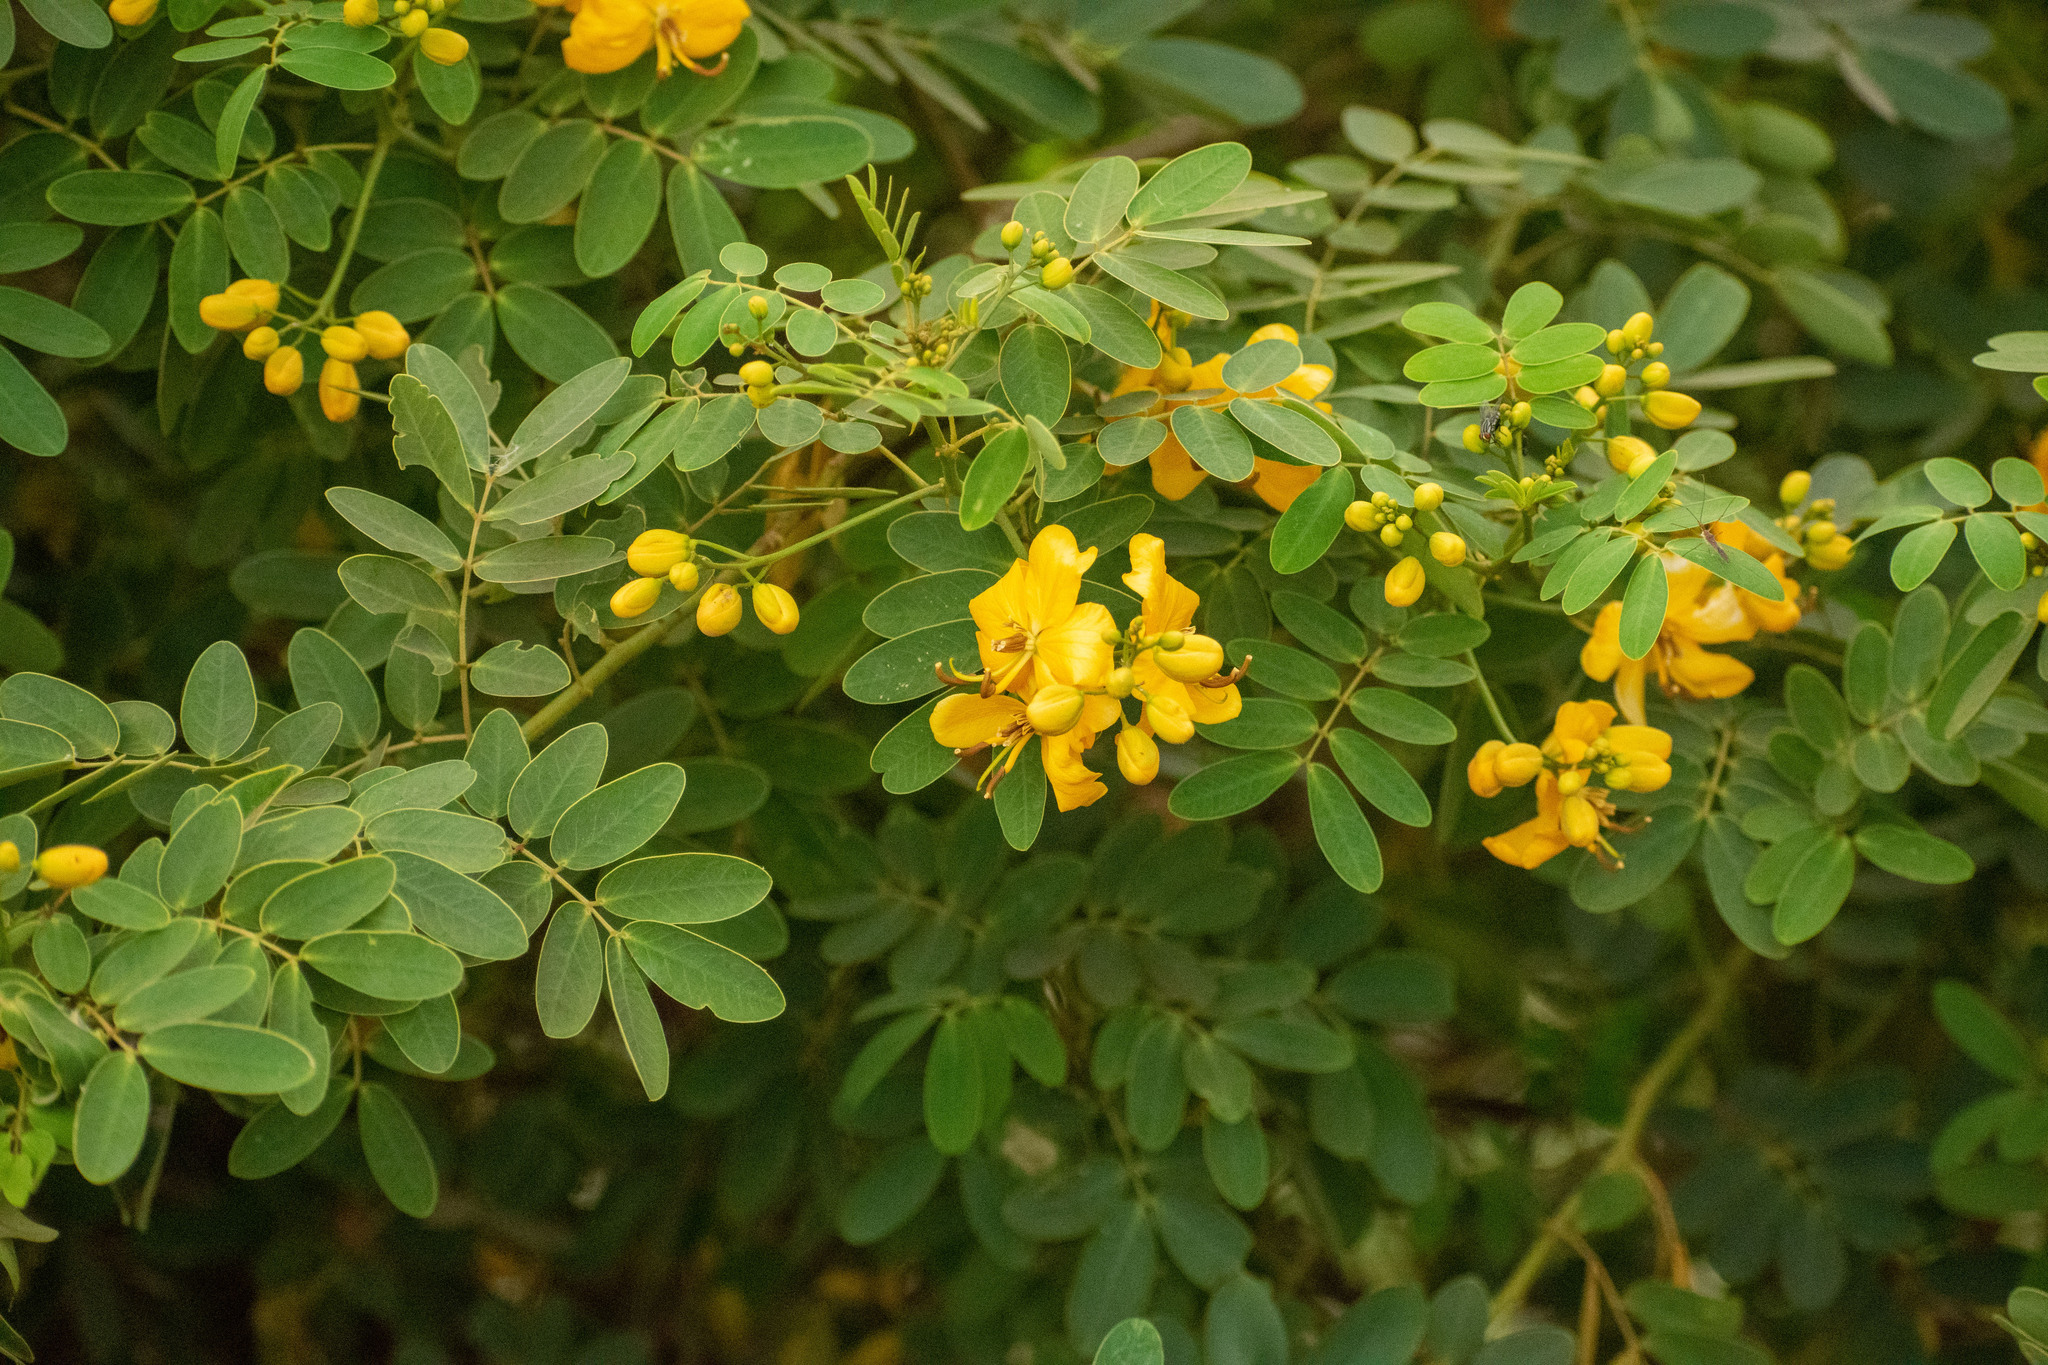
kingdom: Plantae
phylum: Tracheophyta
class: Magnoliopsida
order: Fabales
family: Fabaceae
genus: Senna
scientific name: Senna pendula
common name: Easter cassia
